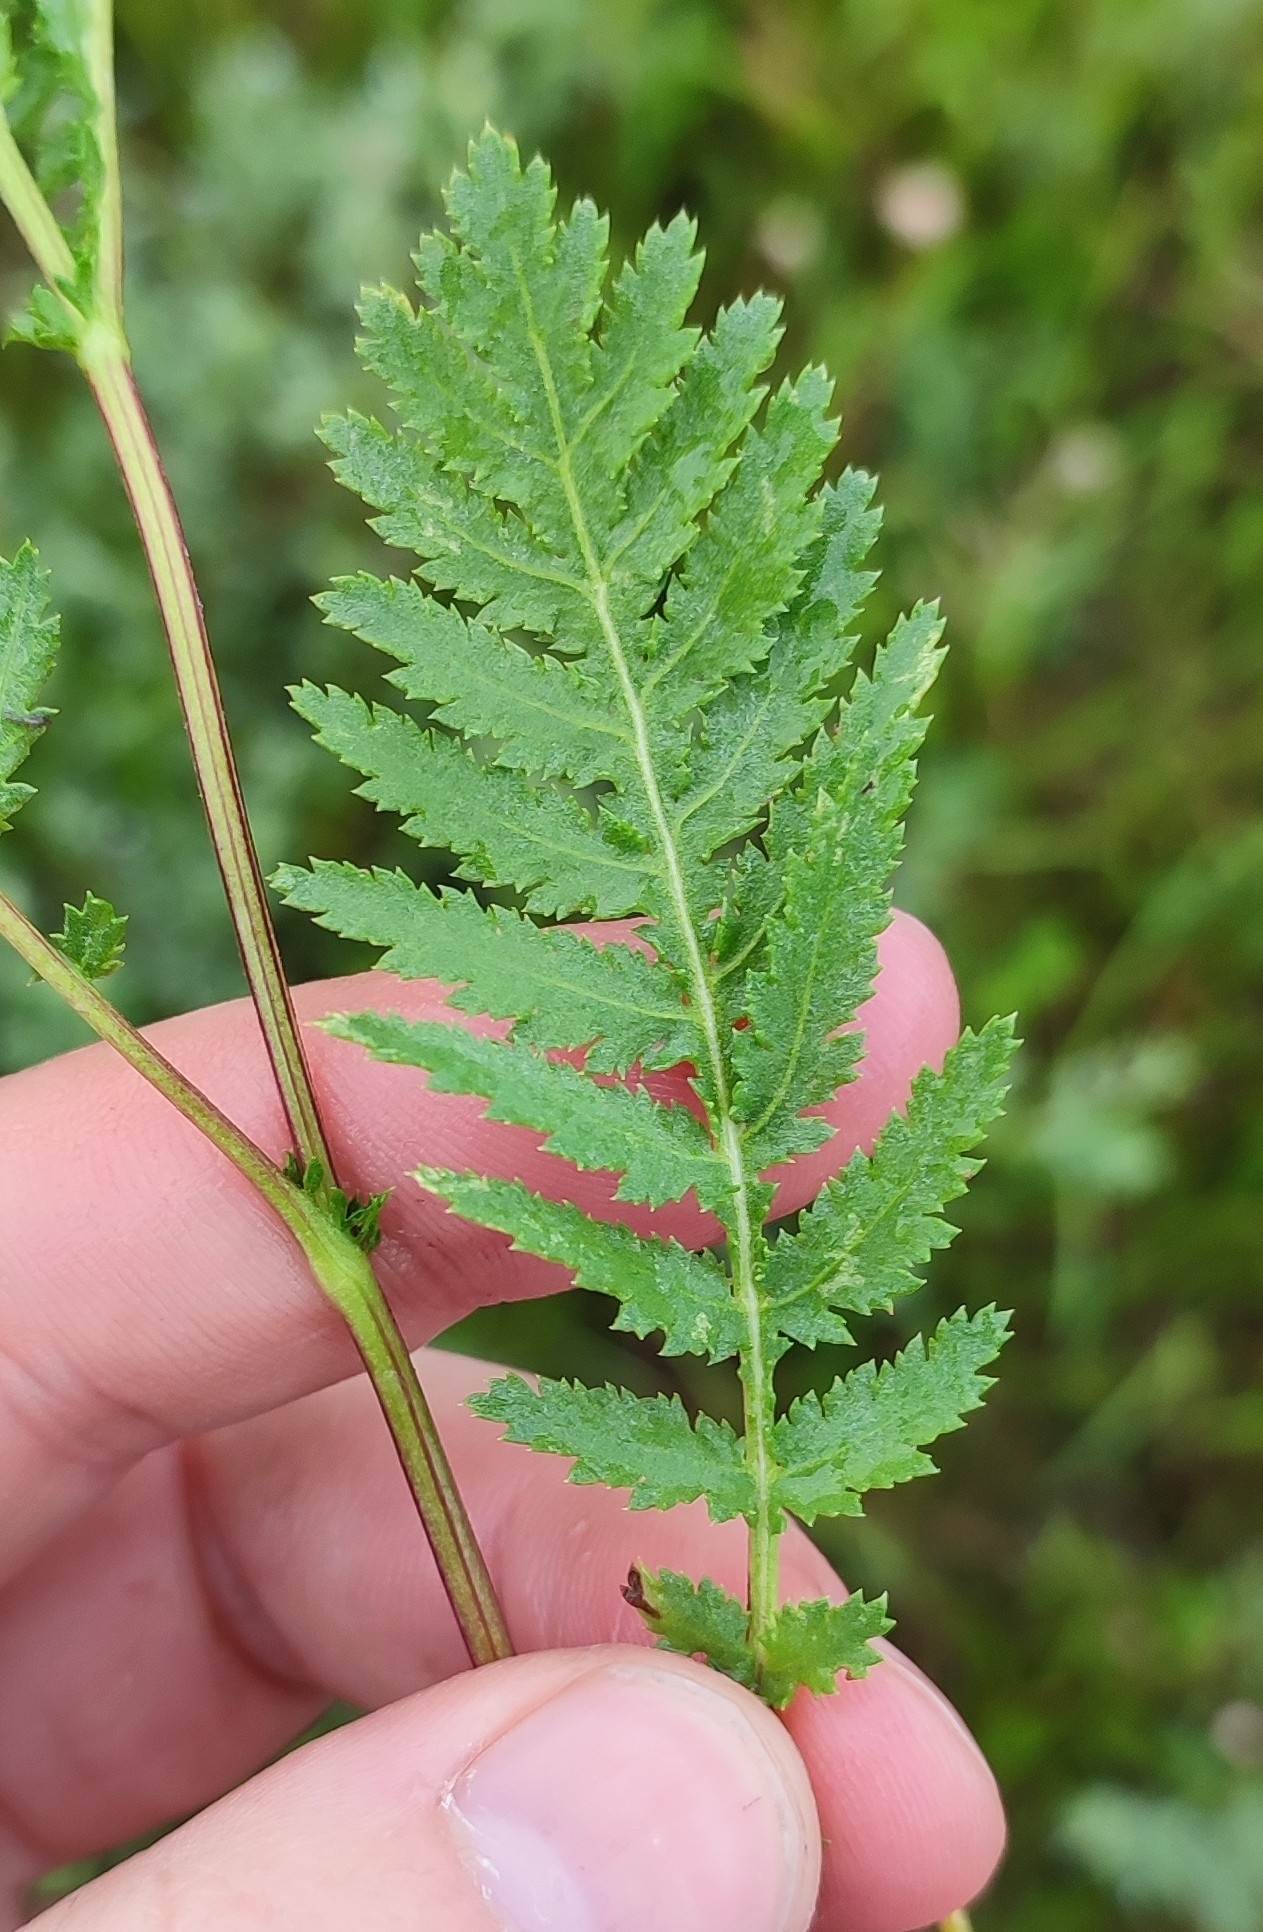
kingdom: Plantae
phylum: Tracheophyta
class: Magnoliopsida
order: Asterales
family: Asteraceae
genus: Tanacetum
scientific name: Tanacetum vulgare
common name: Common tansy
